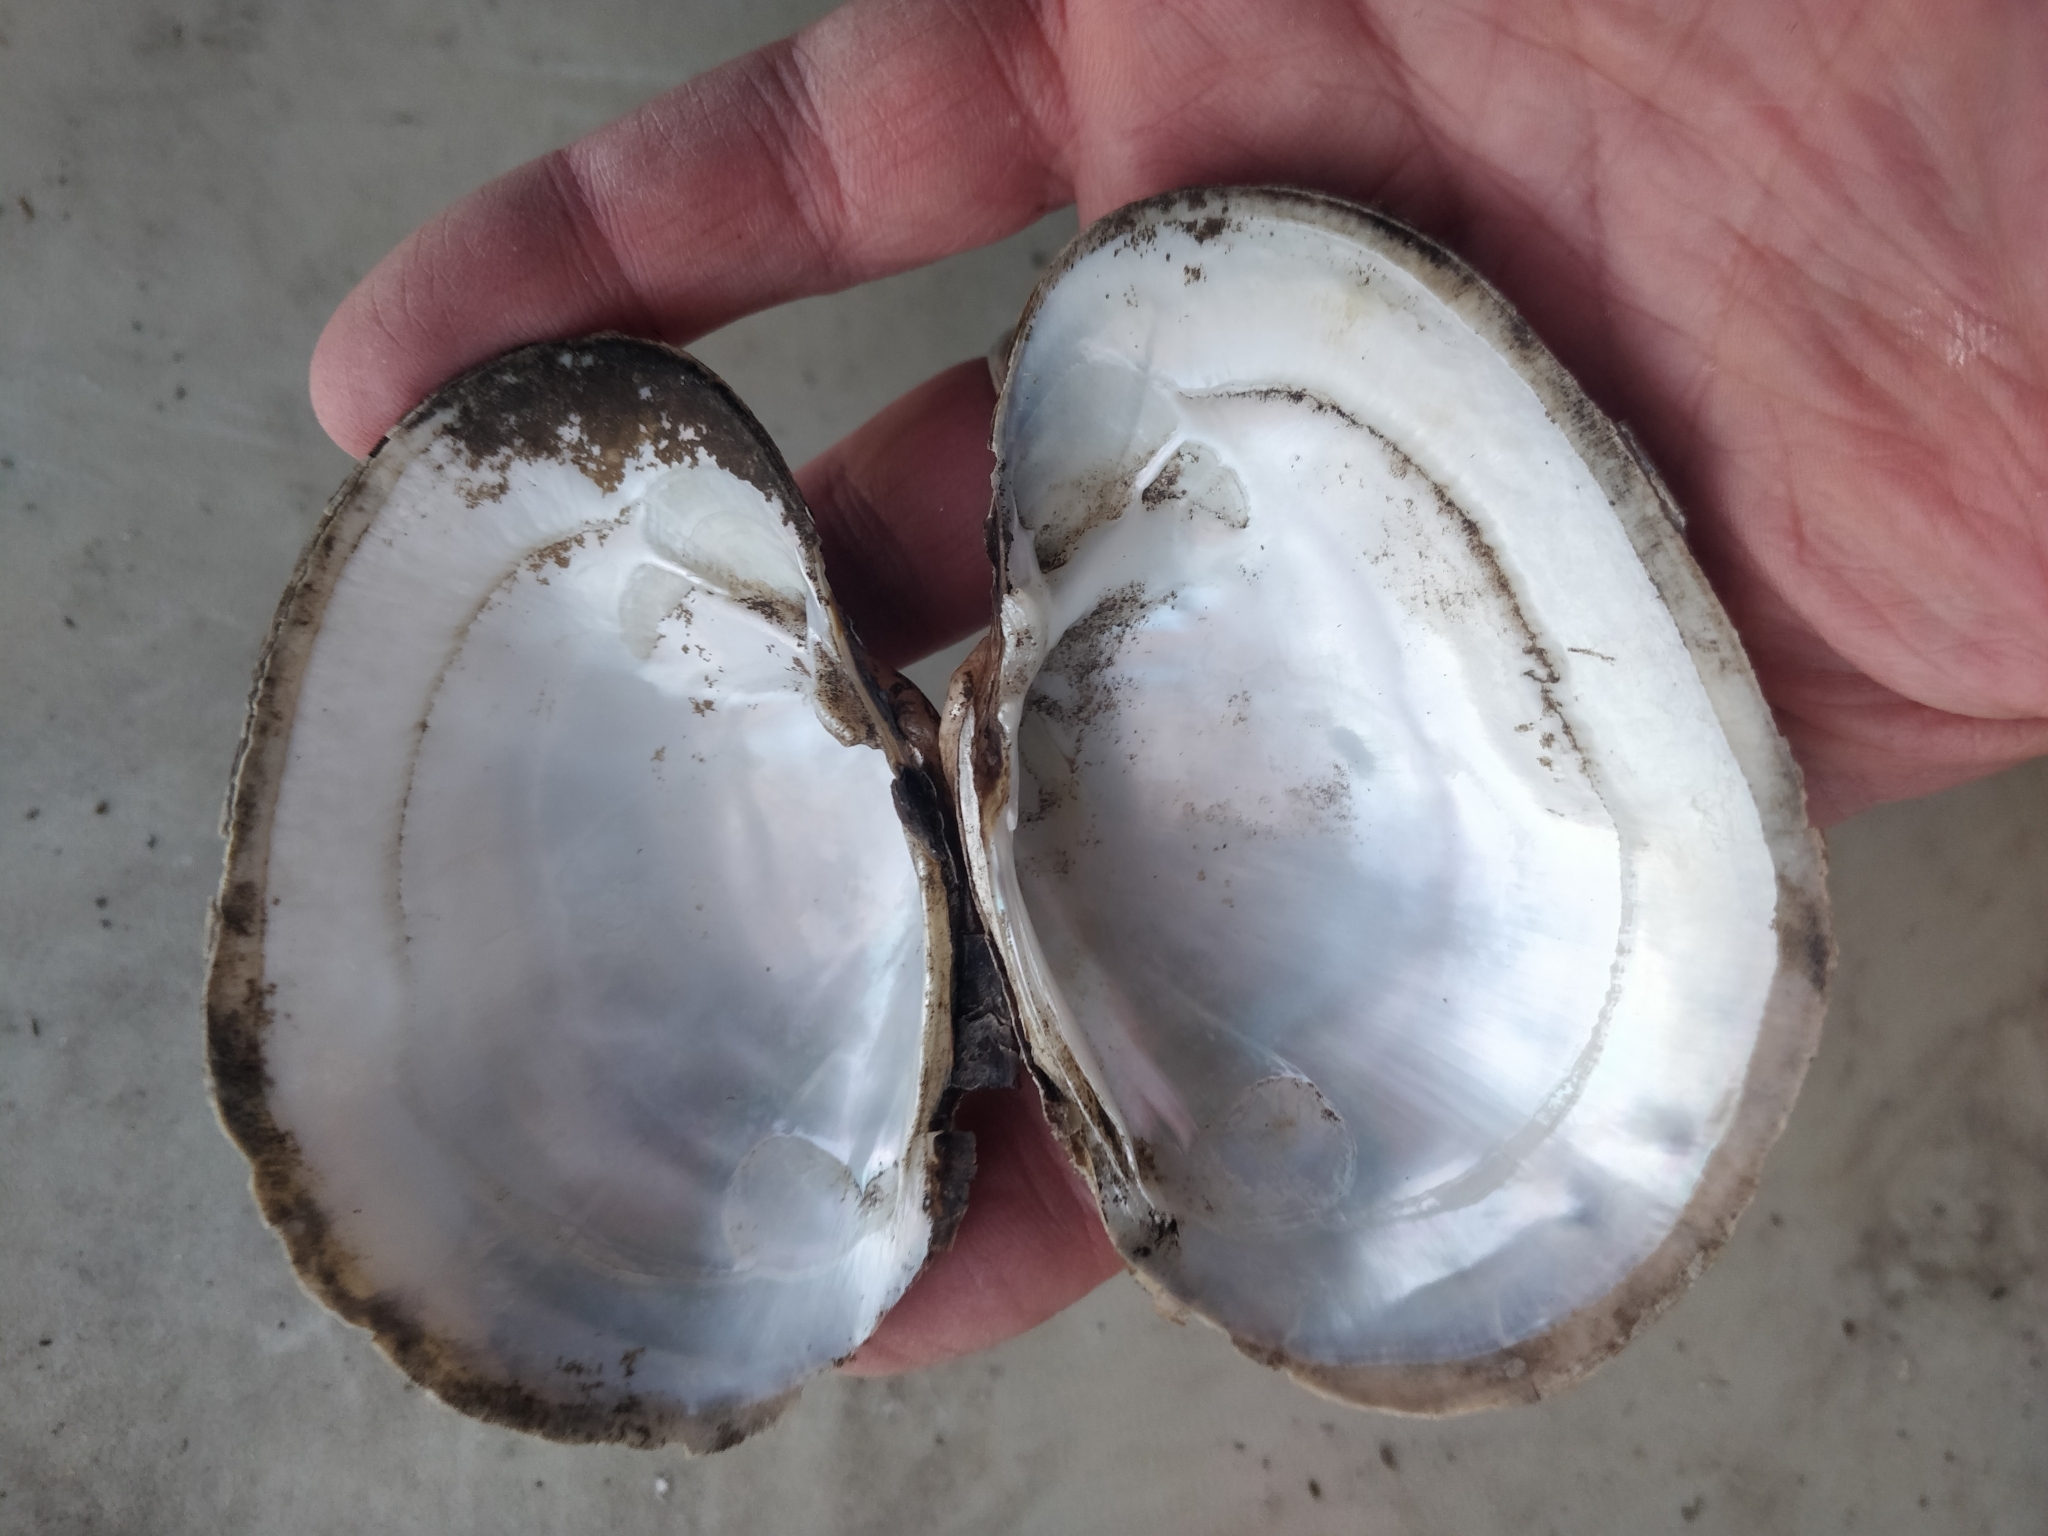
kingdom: Animalia
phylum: Mollusca
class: Bivalvia
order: Unionida
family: Unionidae
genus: Lampsilis
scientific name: Lampsilis cardium
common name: Plain pocketbook
